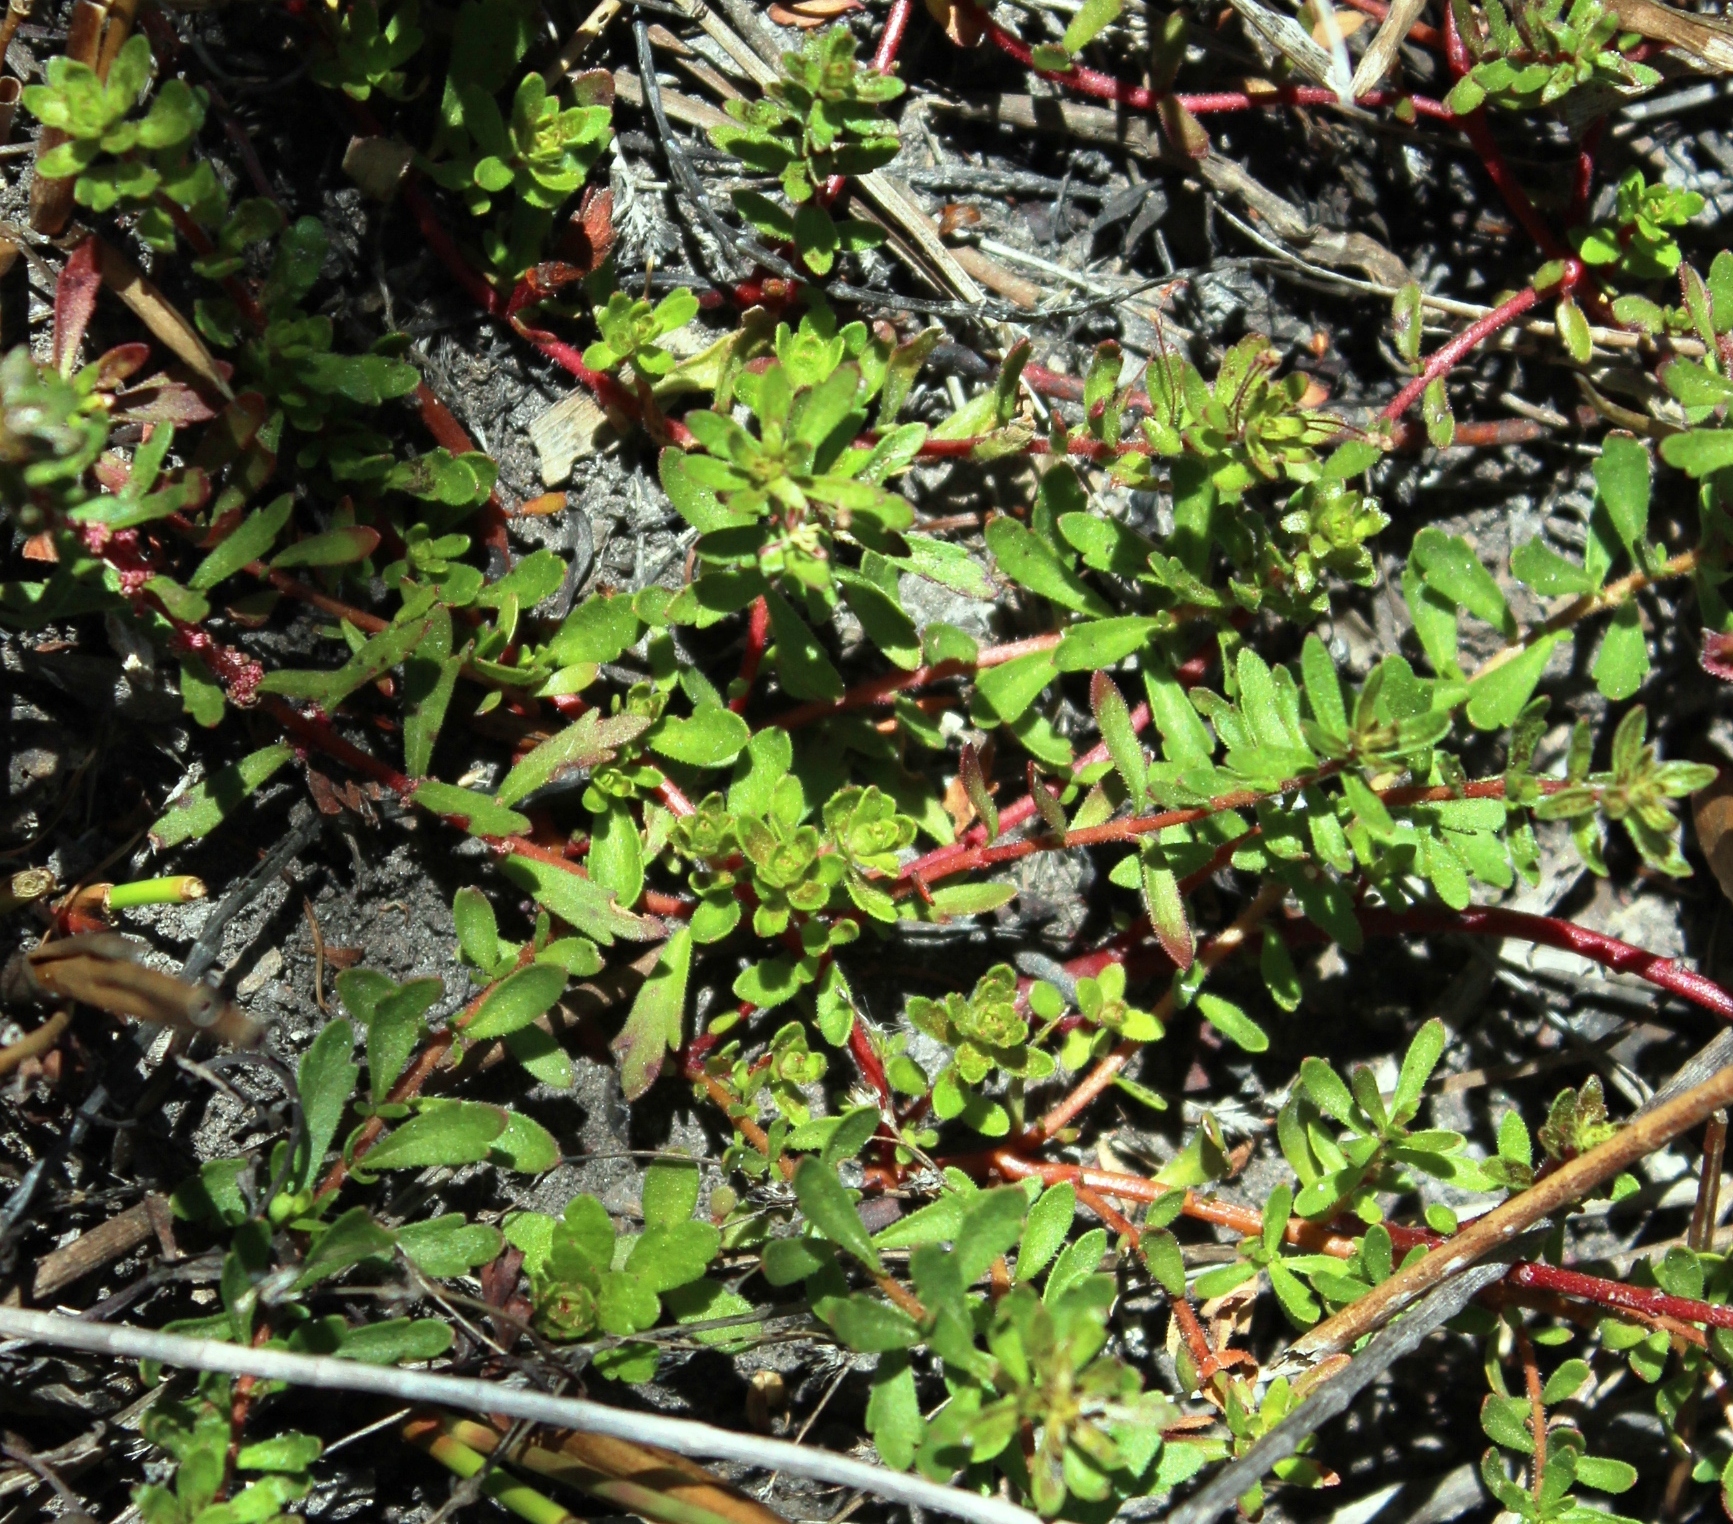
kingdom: Plantae
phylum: Tracheophyta
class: Magnoliopsida
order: Saxifragales
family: Haloragaceae
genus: Laurembergia
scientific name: Laurembergia repens
